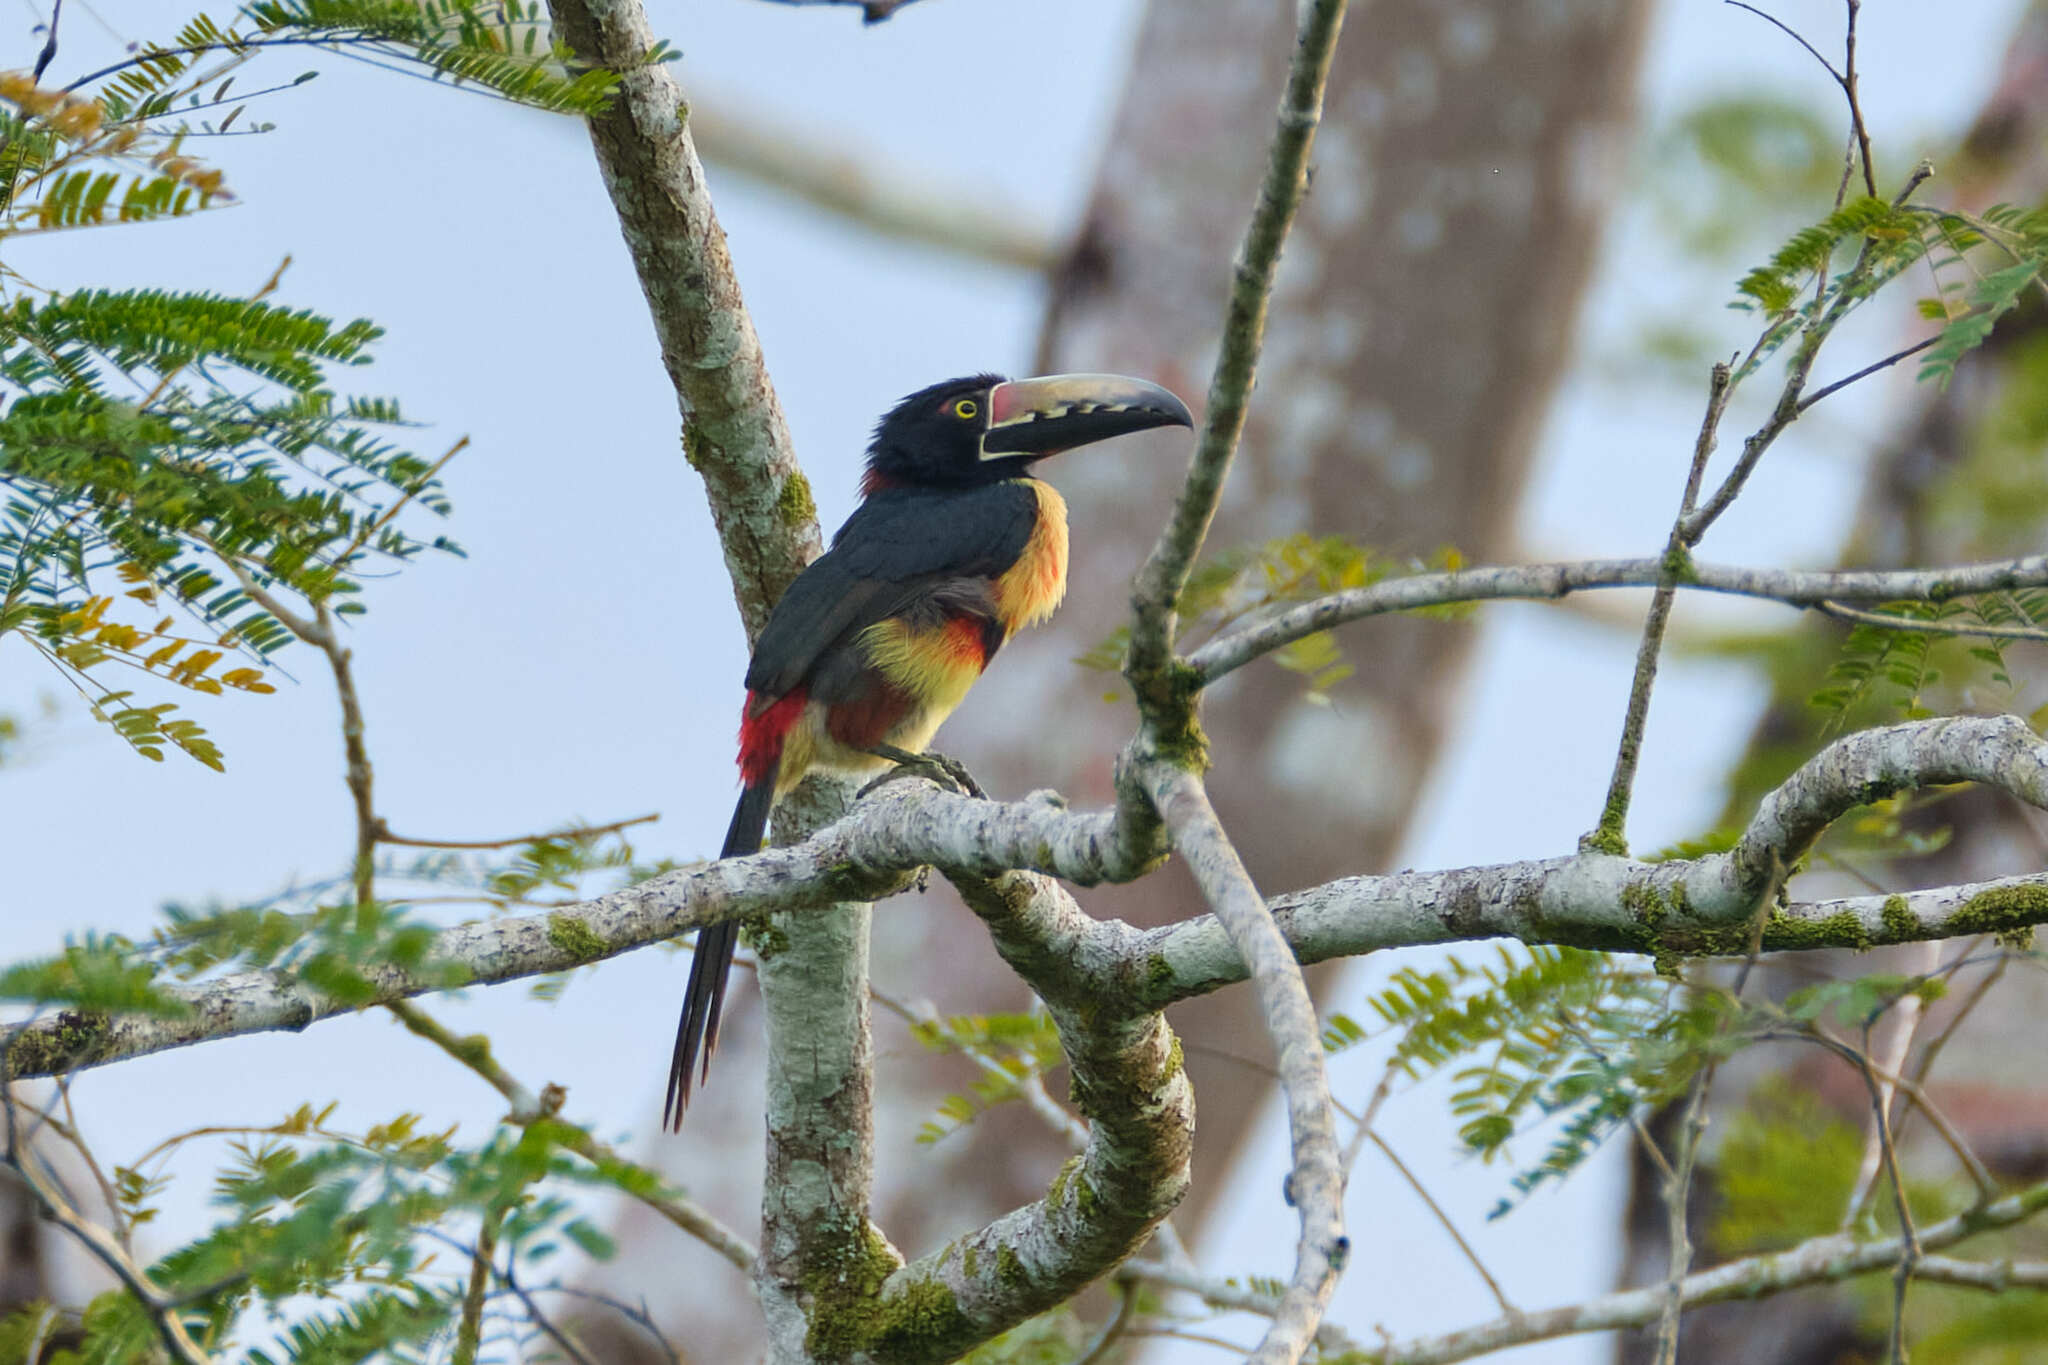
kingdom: Animalia
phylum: Chordata
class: Aves
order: Piciformes
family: Ramphastidae
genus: Pteroglossus
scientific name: Pteroglossus torquatus
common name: Collared aracari
